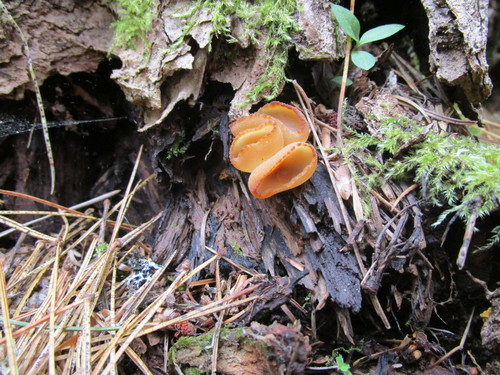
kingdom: Fungi
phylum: Ascomycota
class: Pezizomycetes
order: Pezizales
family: Pezizaceae
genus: Peziza
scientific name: Peziza arvernensis
